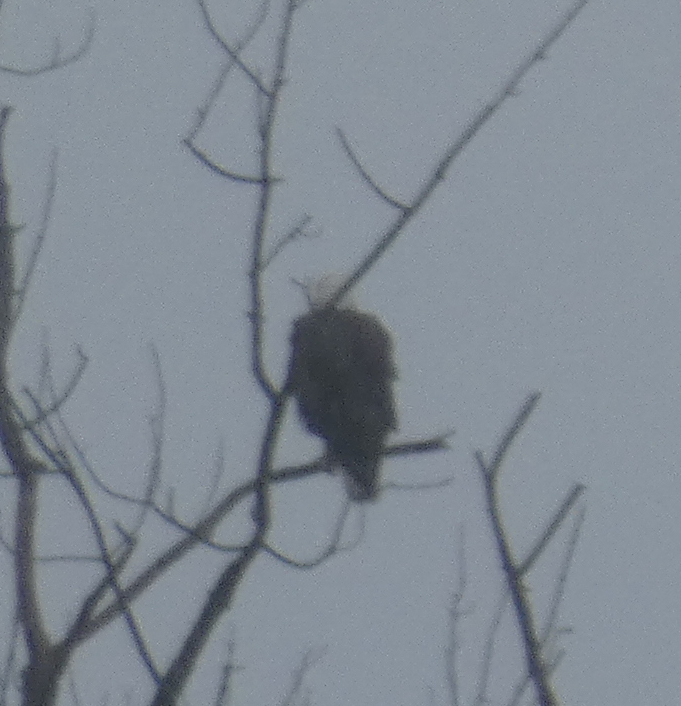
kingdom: Animalia
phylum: Chordata
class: Aves
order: Accipitriformes
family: Accipitridae
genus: Haliaeetus
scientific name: Haliaeetus leucocephalus
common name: Bald eagle
